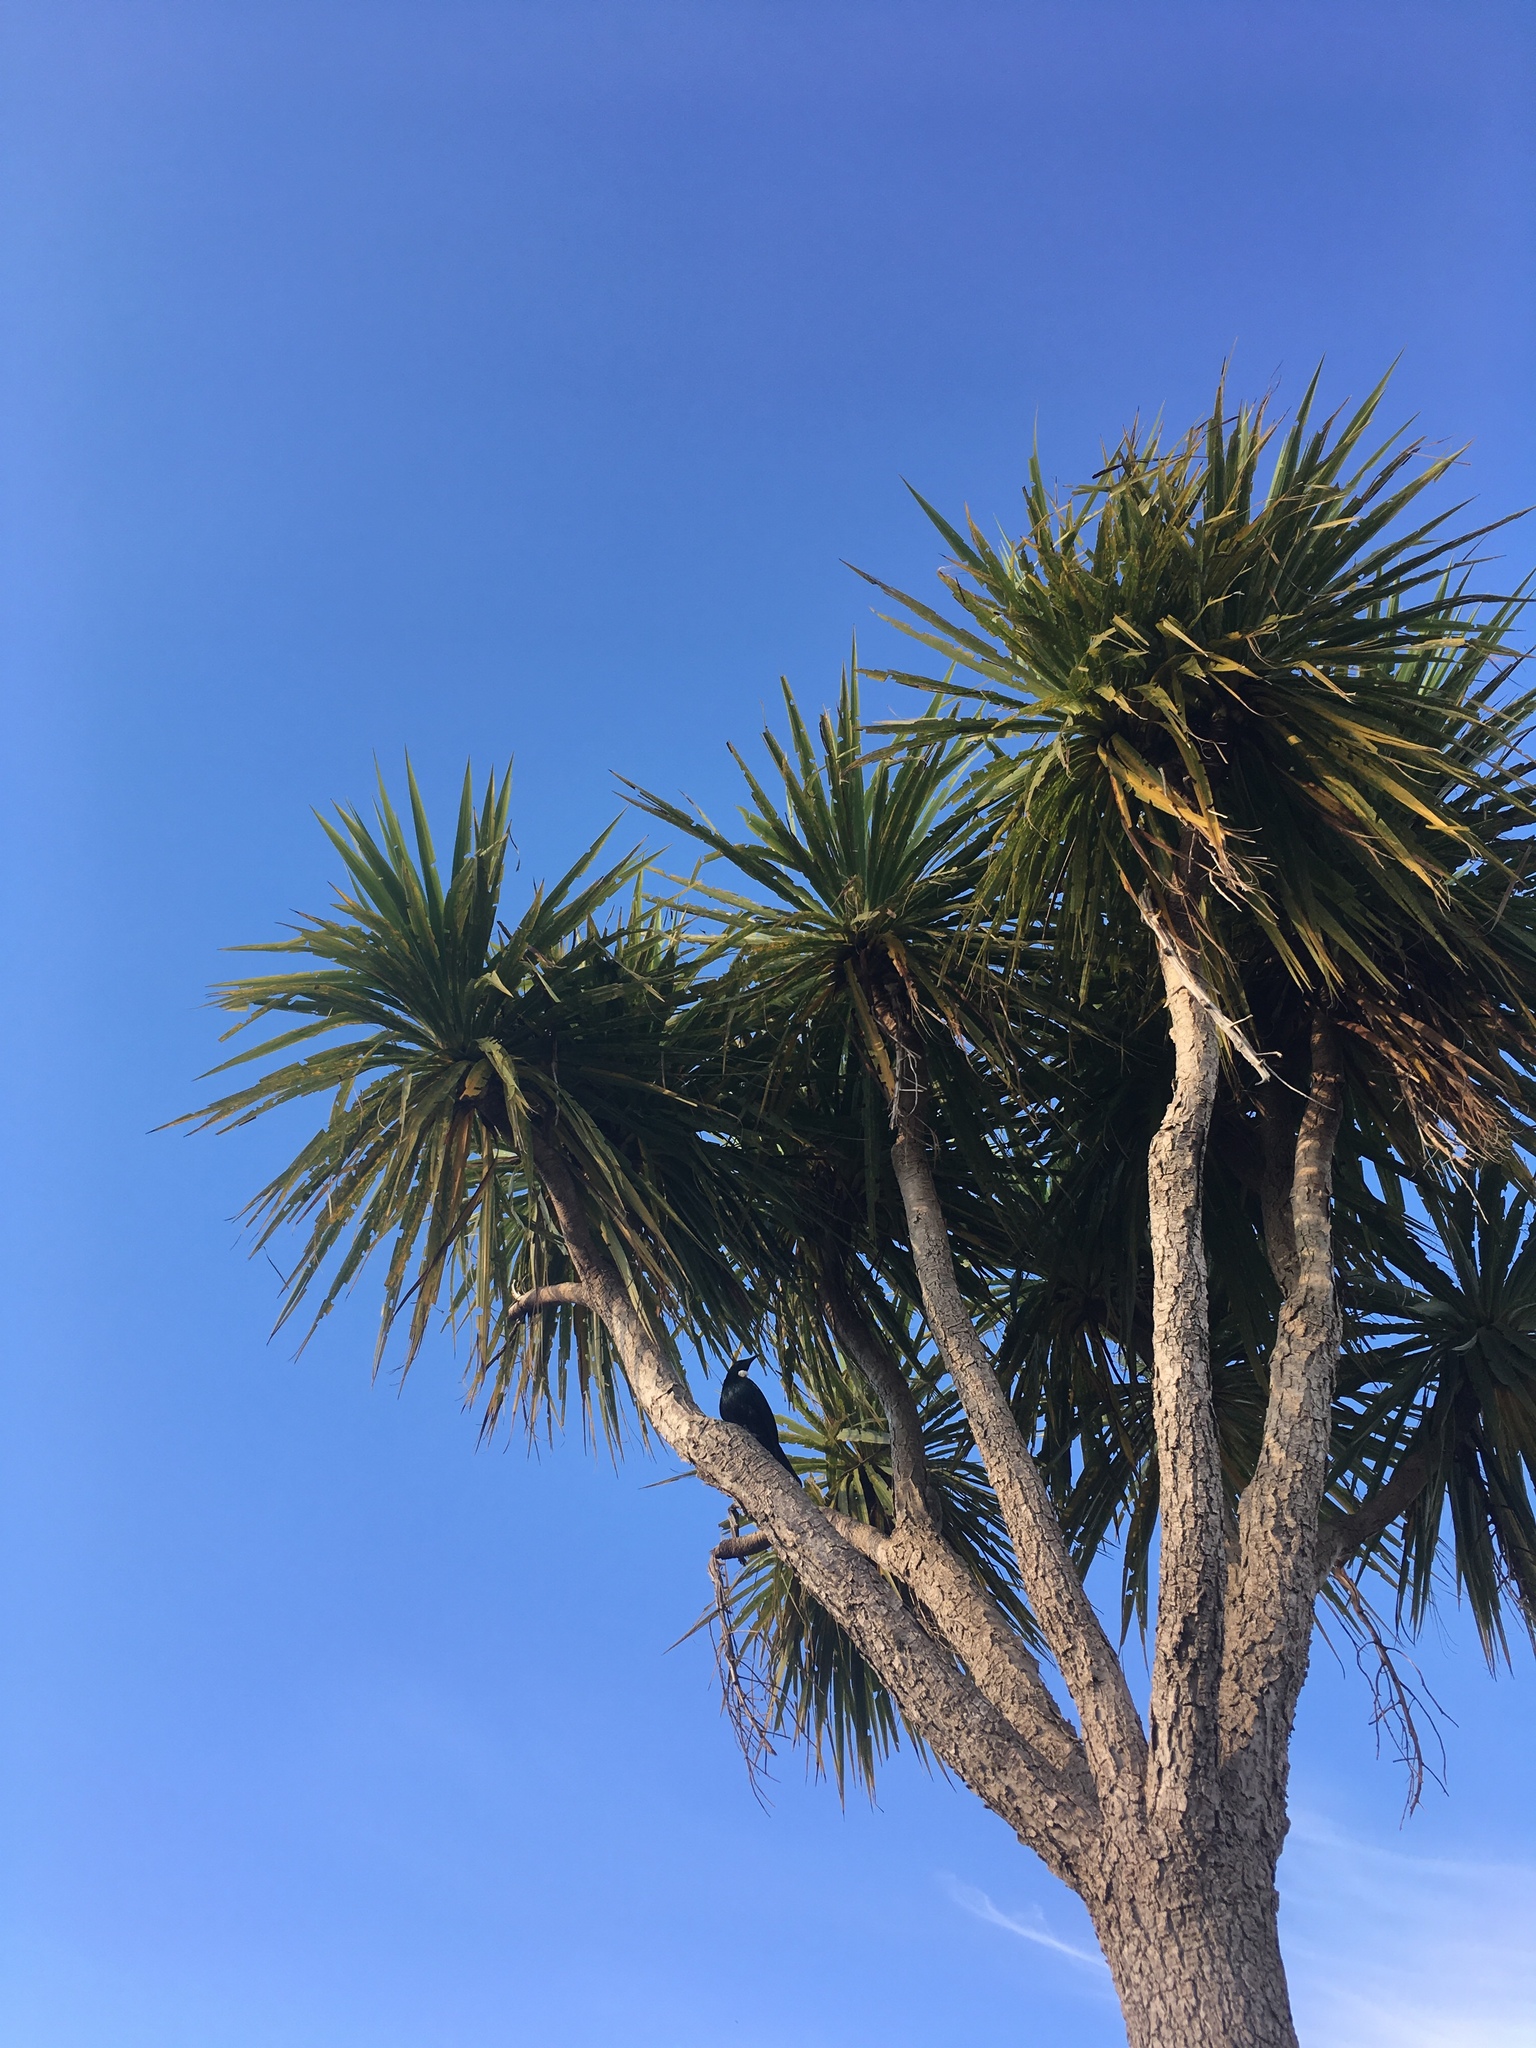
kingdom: Animalia
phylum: Chordata
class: Aves
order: Passeriformes
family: Meliphagidae
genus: Prosthemadera
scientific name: Prosthemadera novaeseelandiae
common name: Tui
